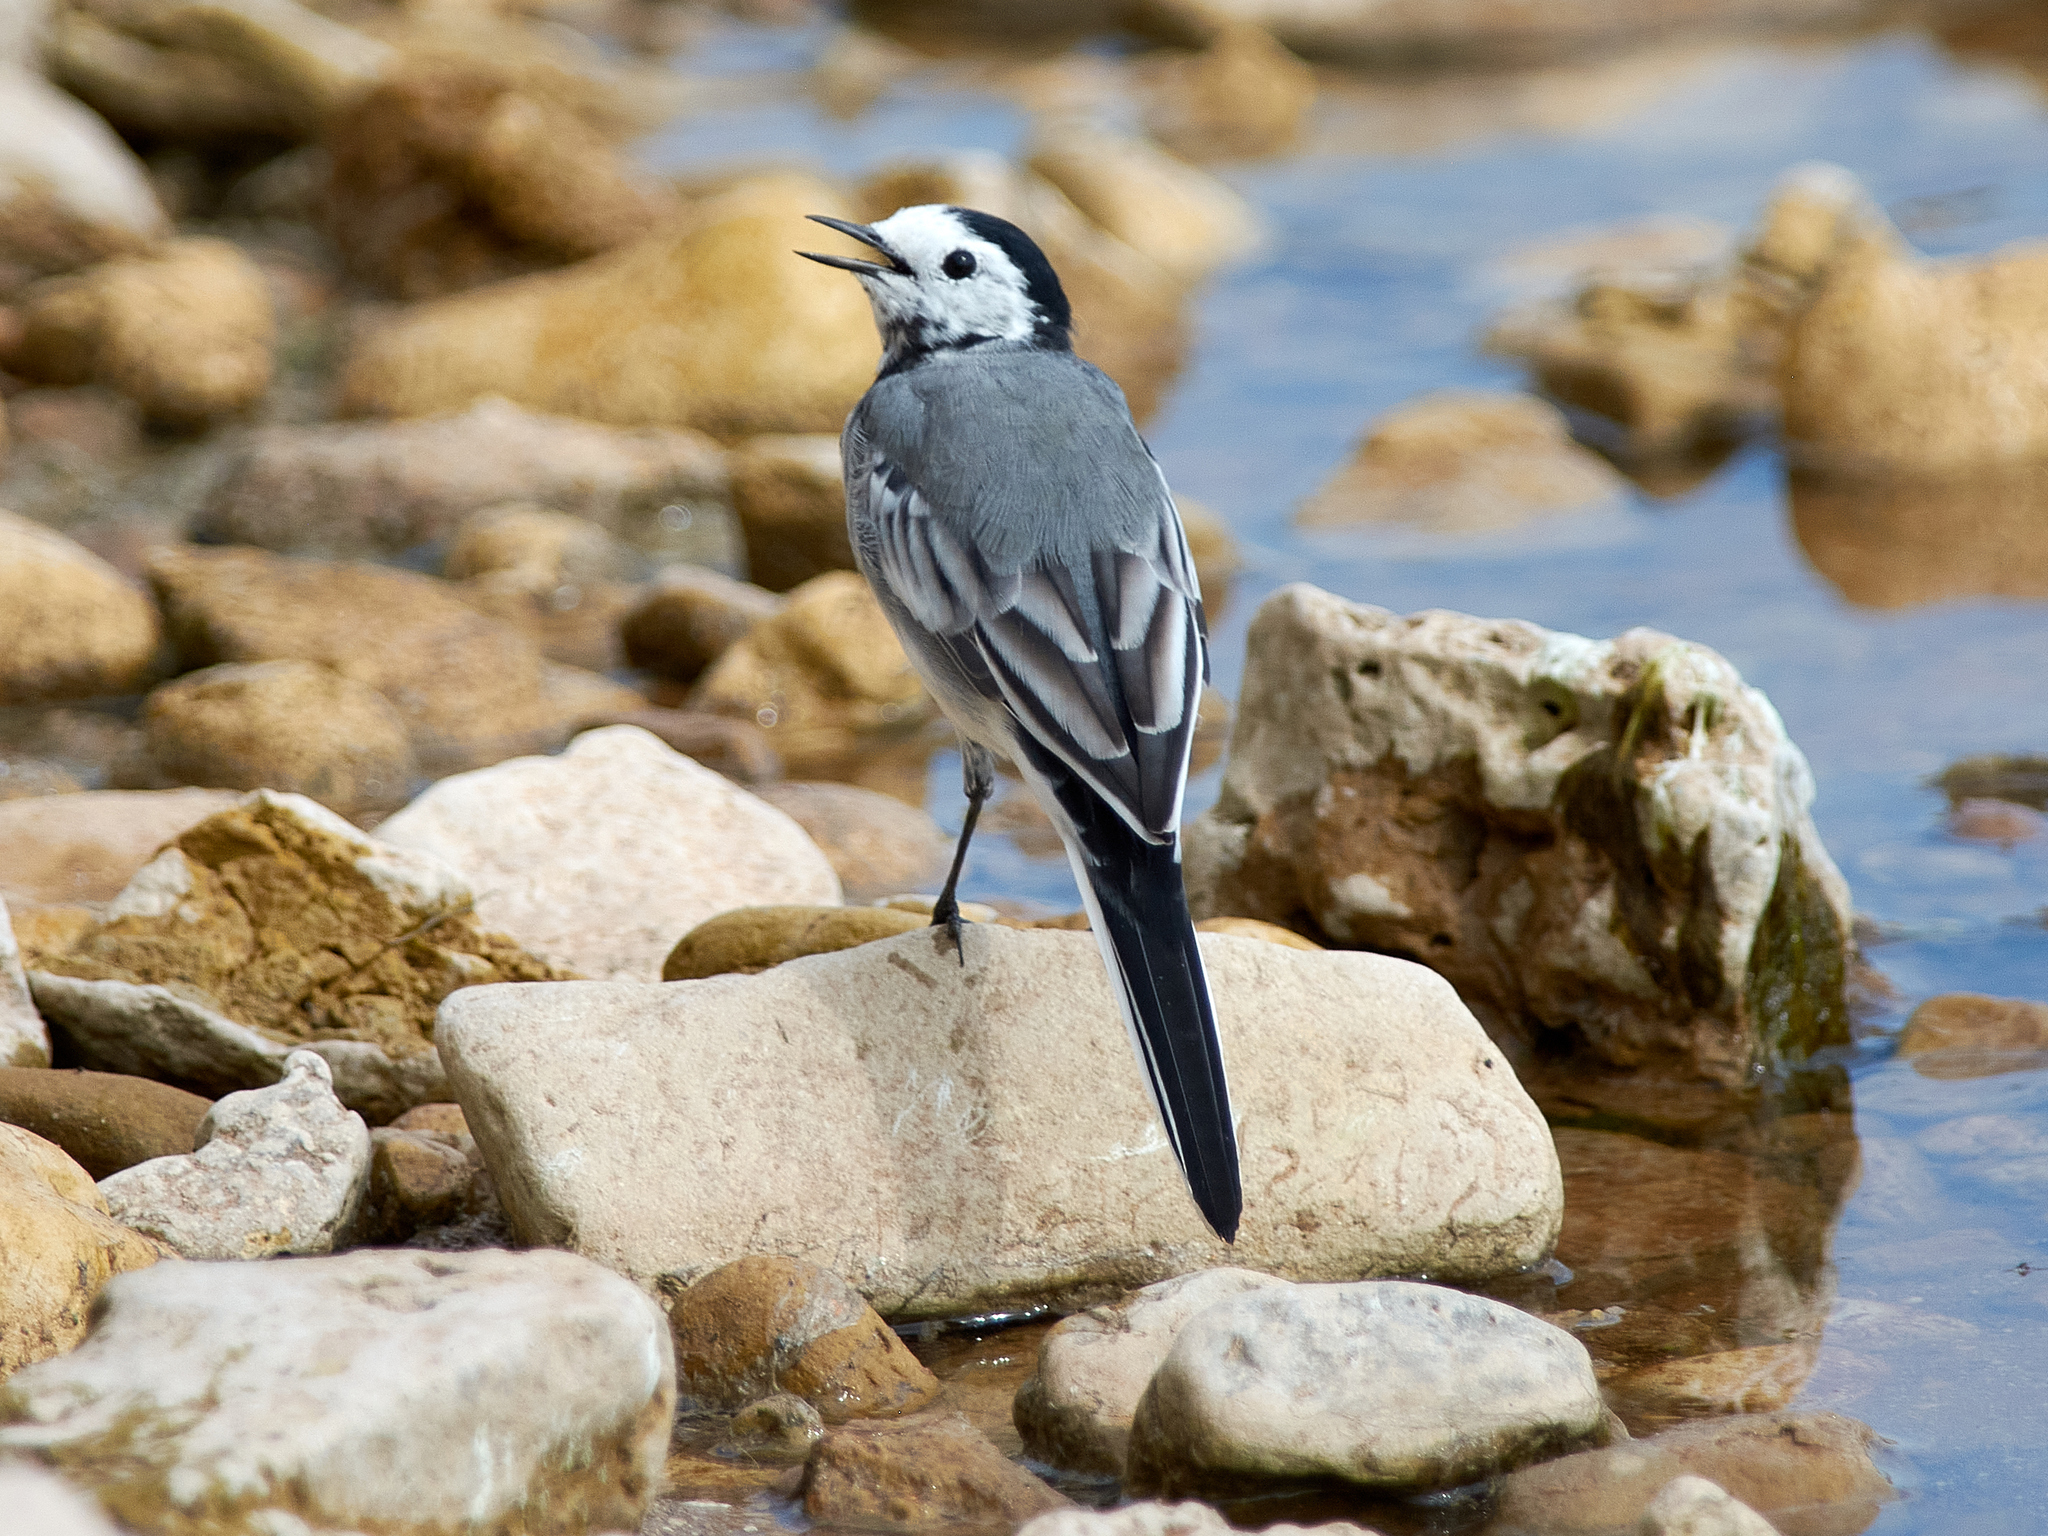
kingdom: Animalia
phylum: Chordata
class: Aves
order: Passeriformes
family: Motacillidae
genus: Motacilla
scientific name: Motacilla alba
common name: White wagtail
